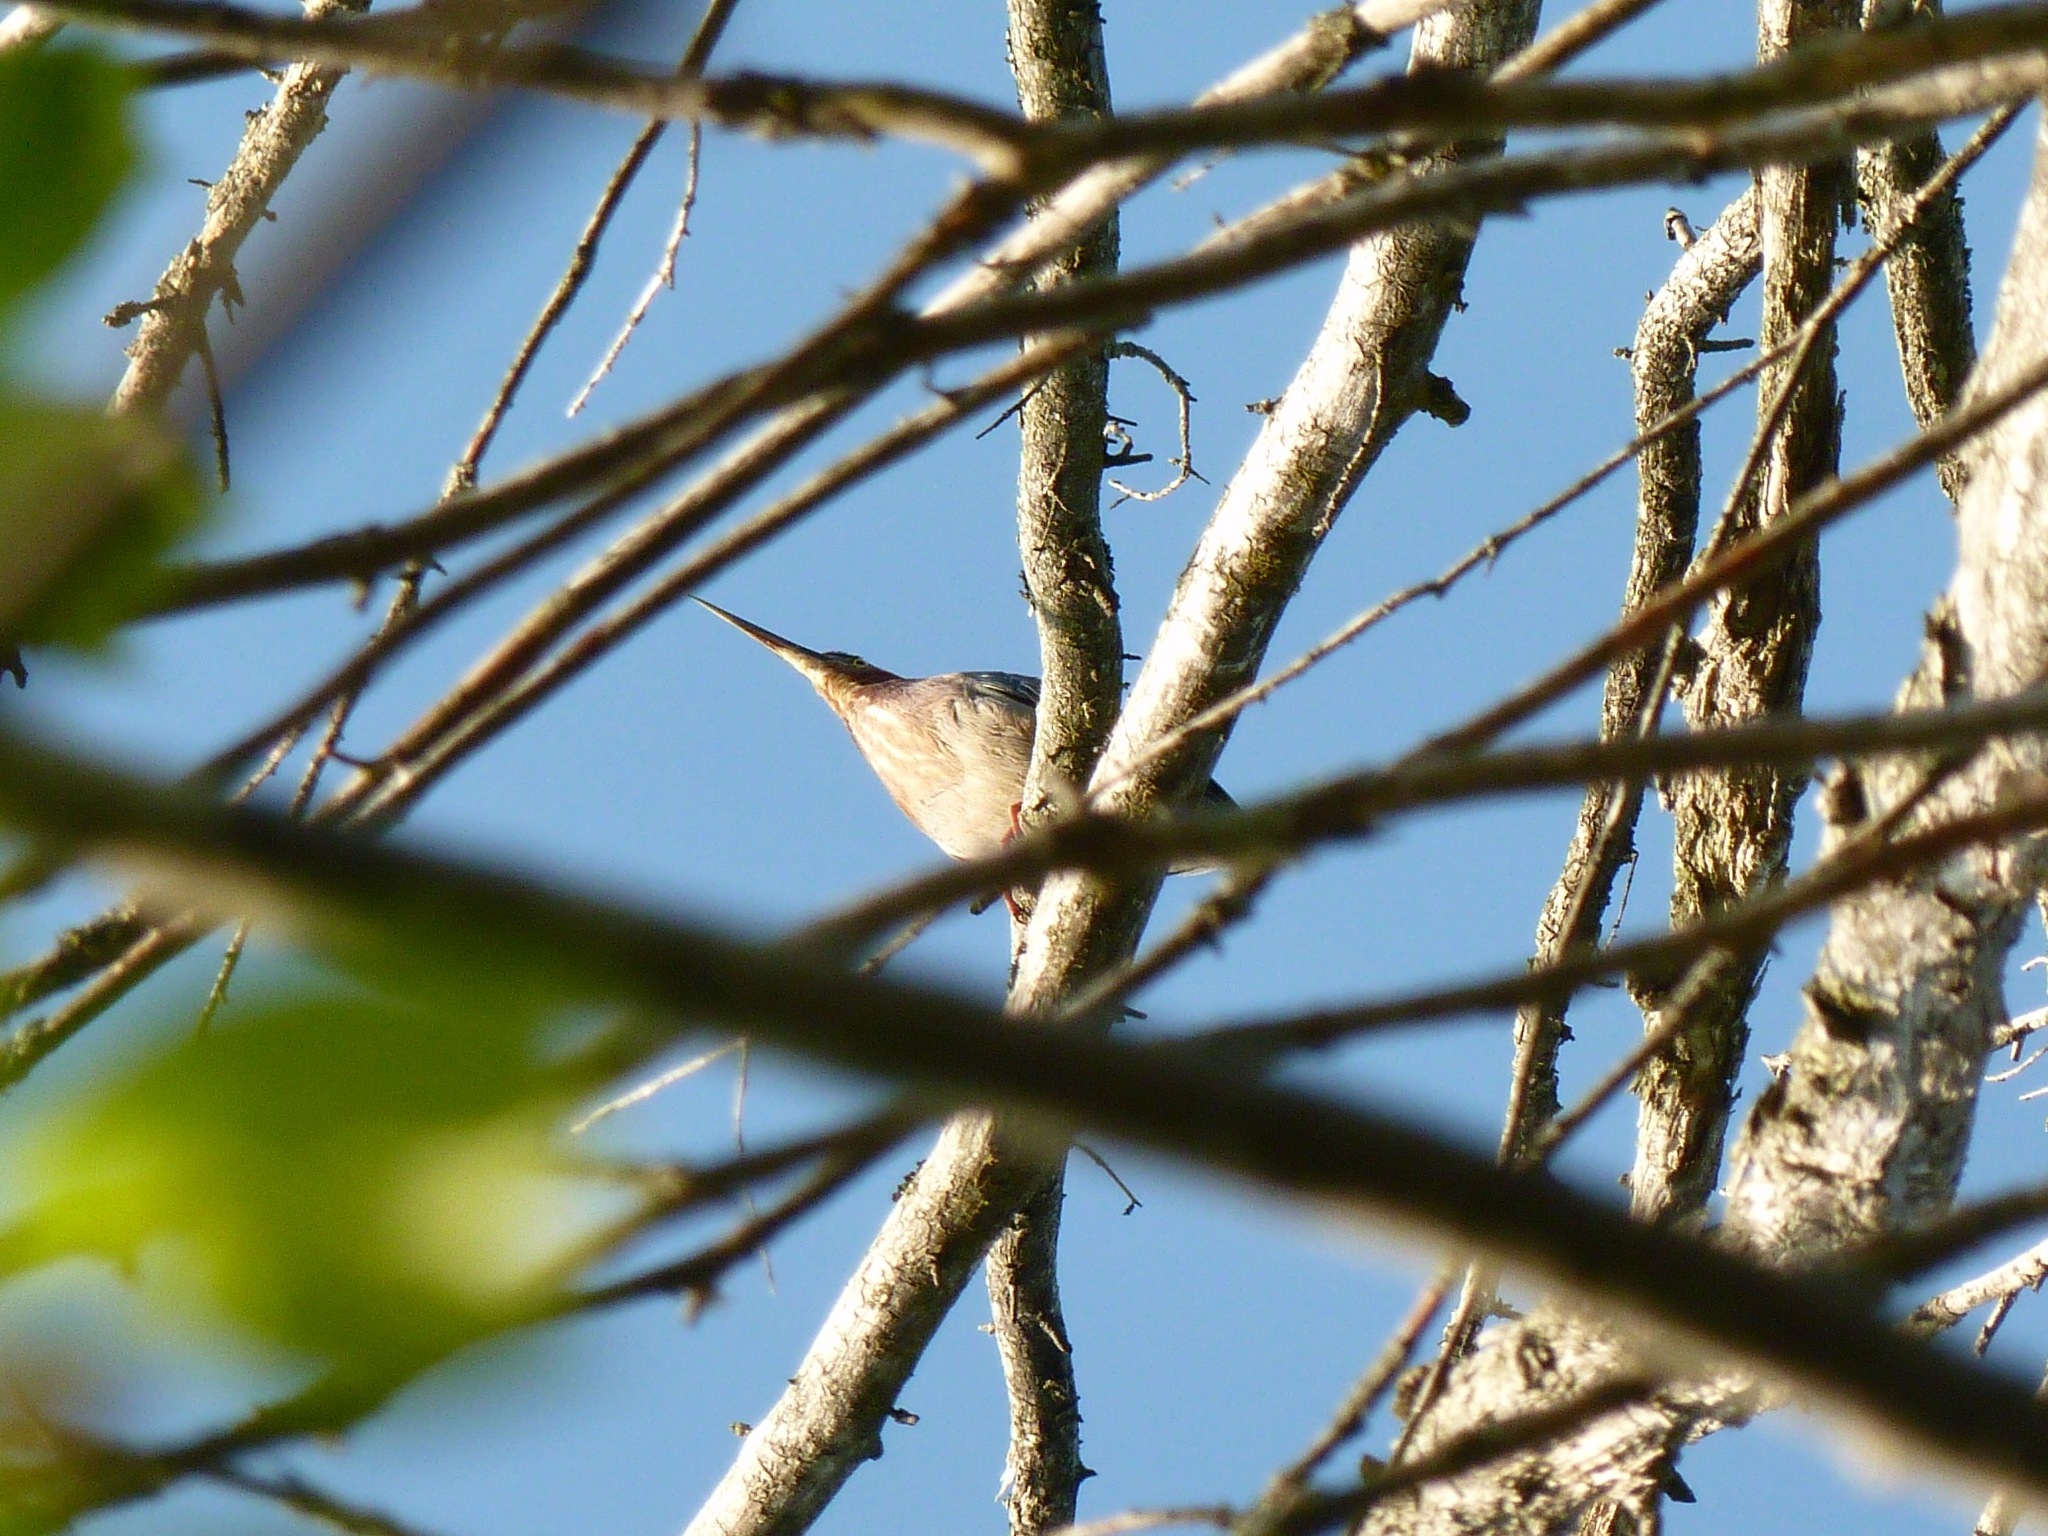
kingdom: Animalia
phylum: Chordata
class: Aves
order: Pelecaniformes
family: Ardeidae
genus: Butorides
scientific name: Butorides virescens
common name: Green heron
